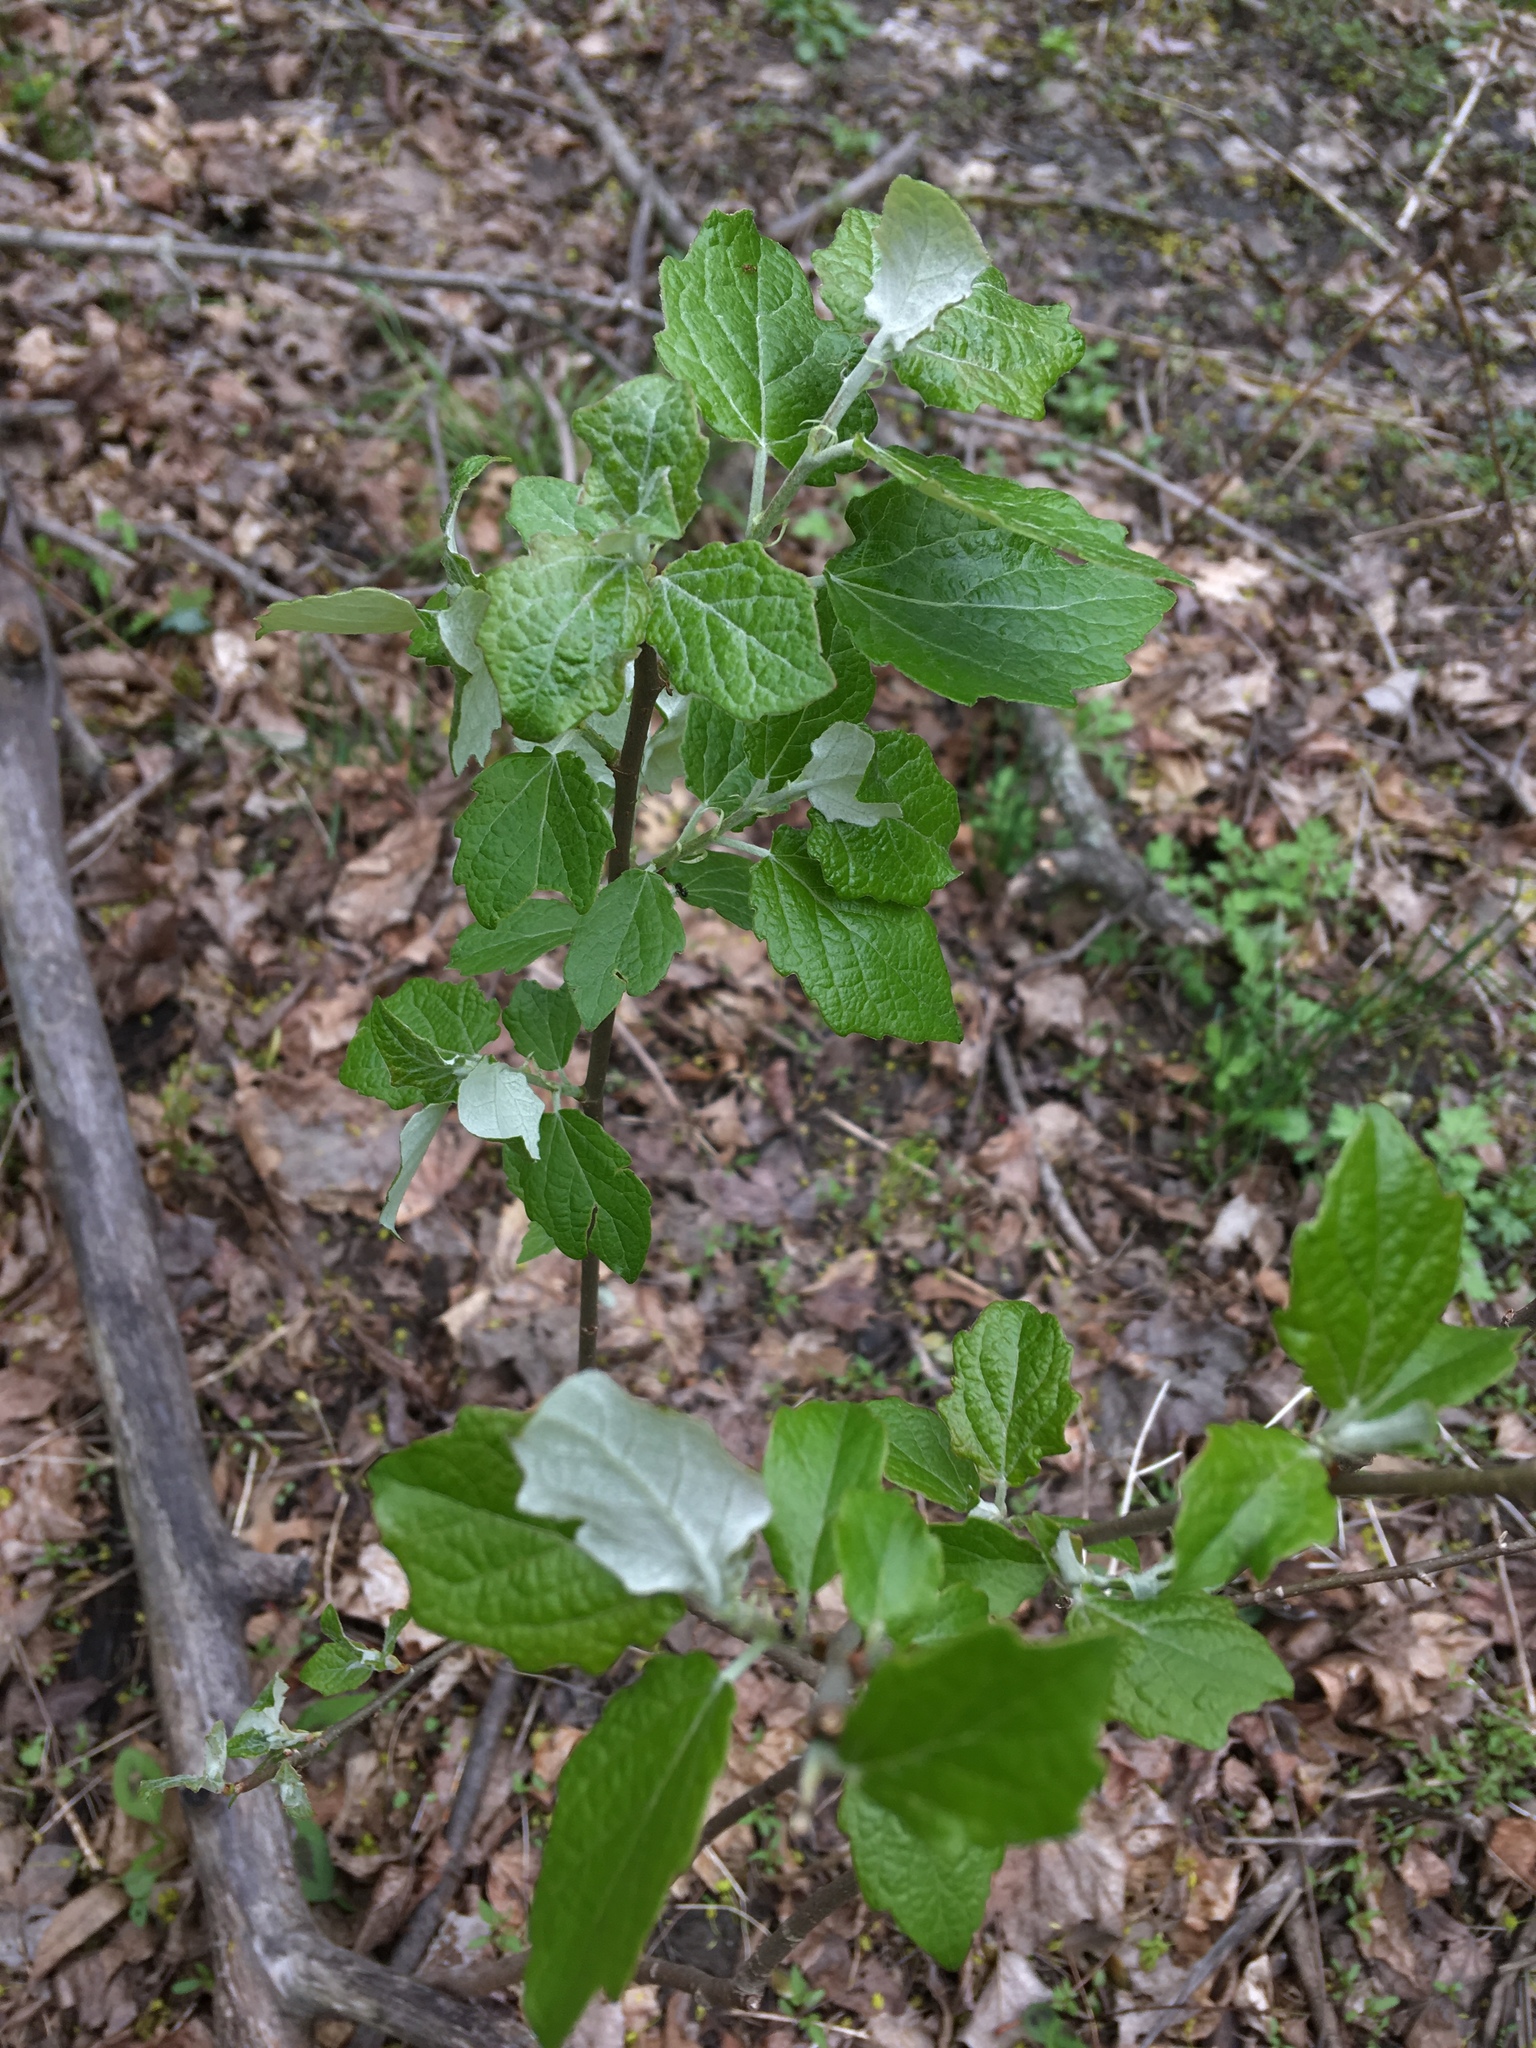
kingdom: Plantae
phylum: Tracheophyta
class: Magnoliopsida
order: Malpighiales
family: Salicaceae
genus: Populus
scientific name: Populus grandidentata
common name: Bigtooth aspen
